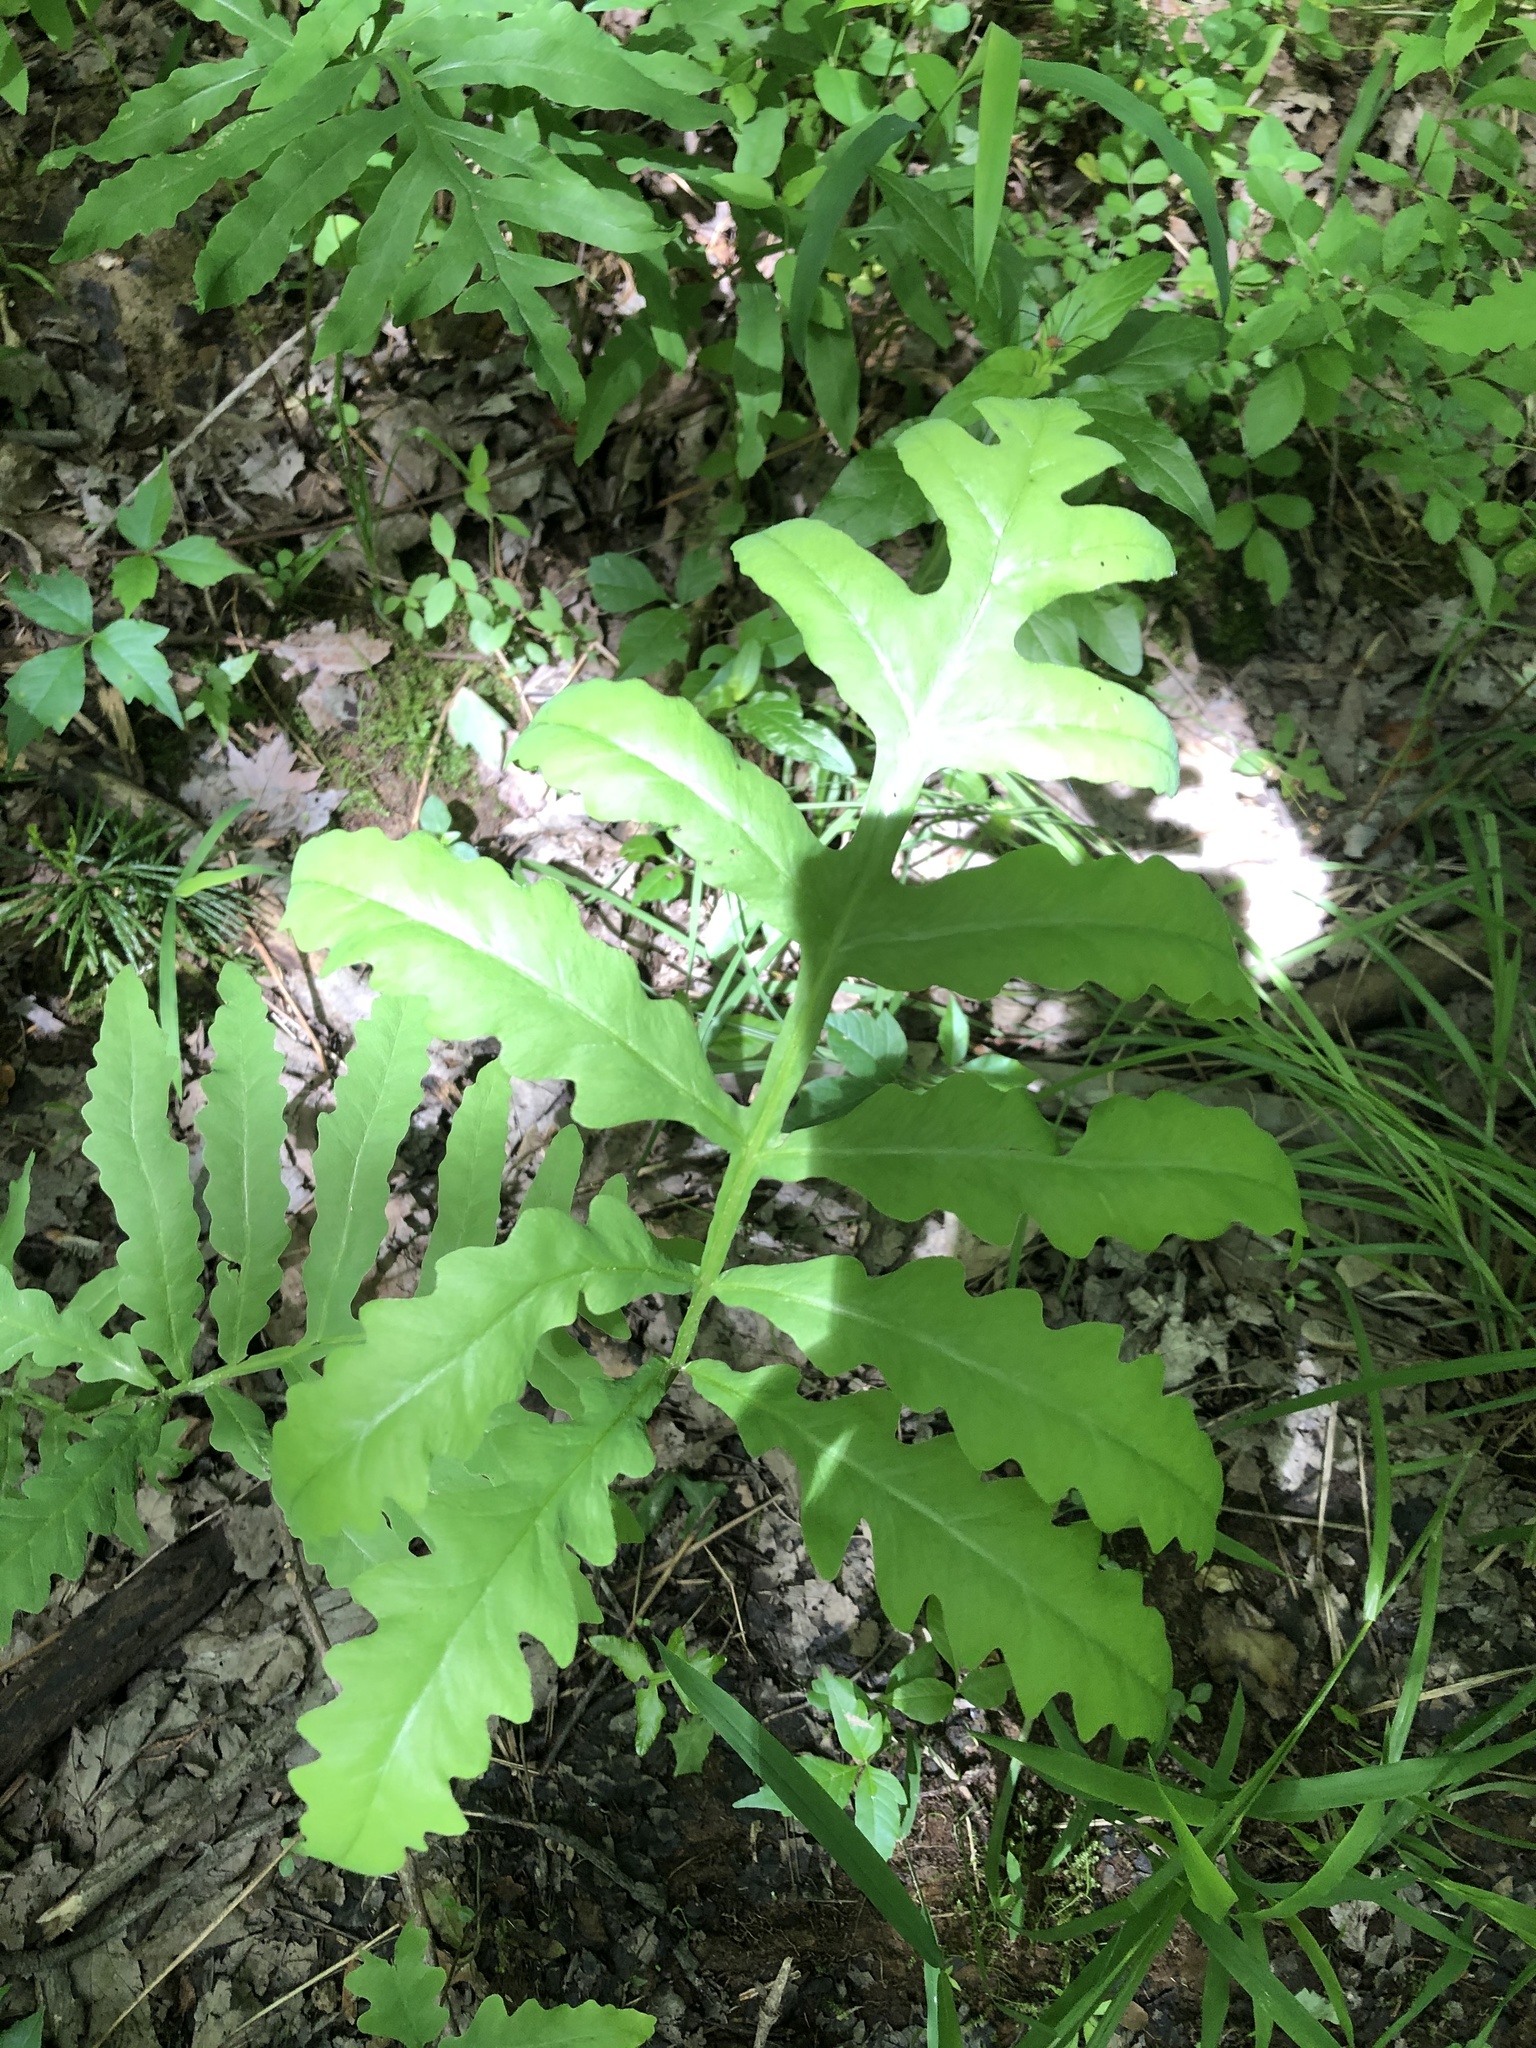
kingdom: Plantae
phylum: Tracheophyta
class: Polypodiopsida
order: Polypodiales
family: Onocleaceae
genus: Onoclea
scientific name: Onoclea sensibilis
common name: Sensitive fern
